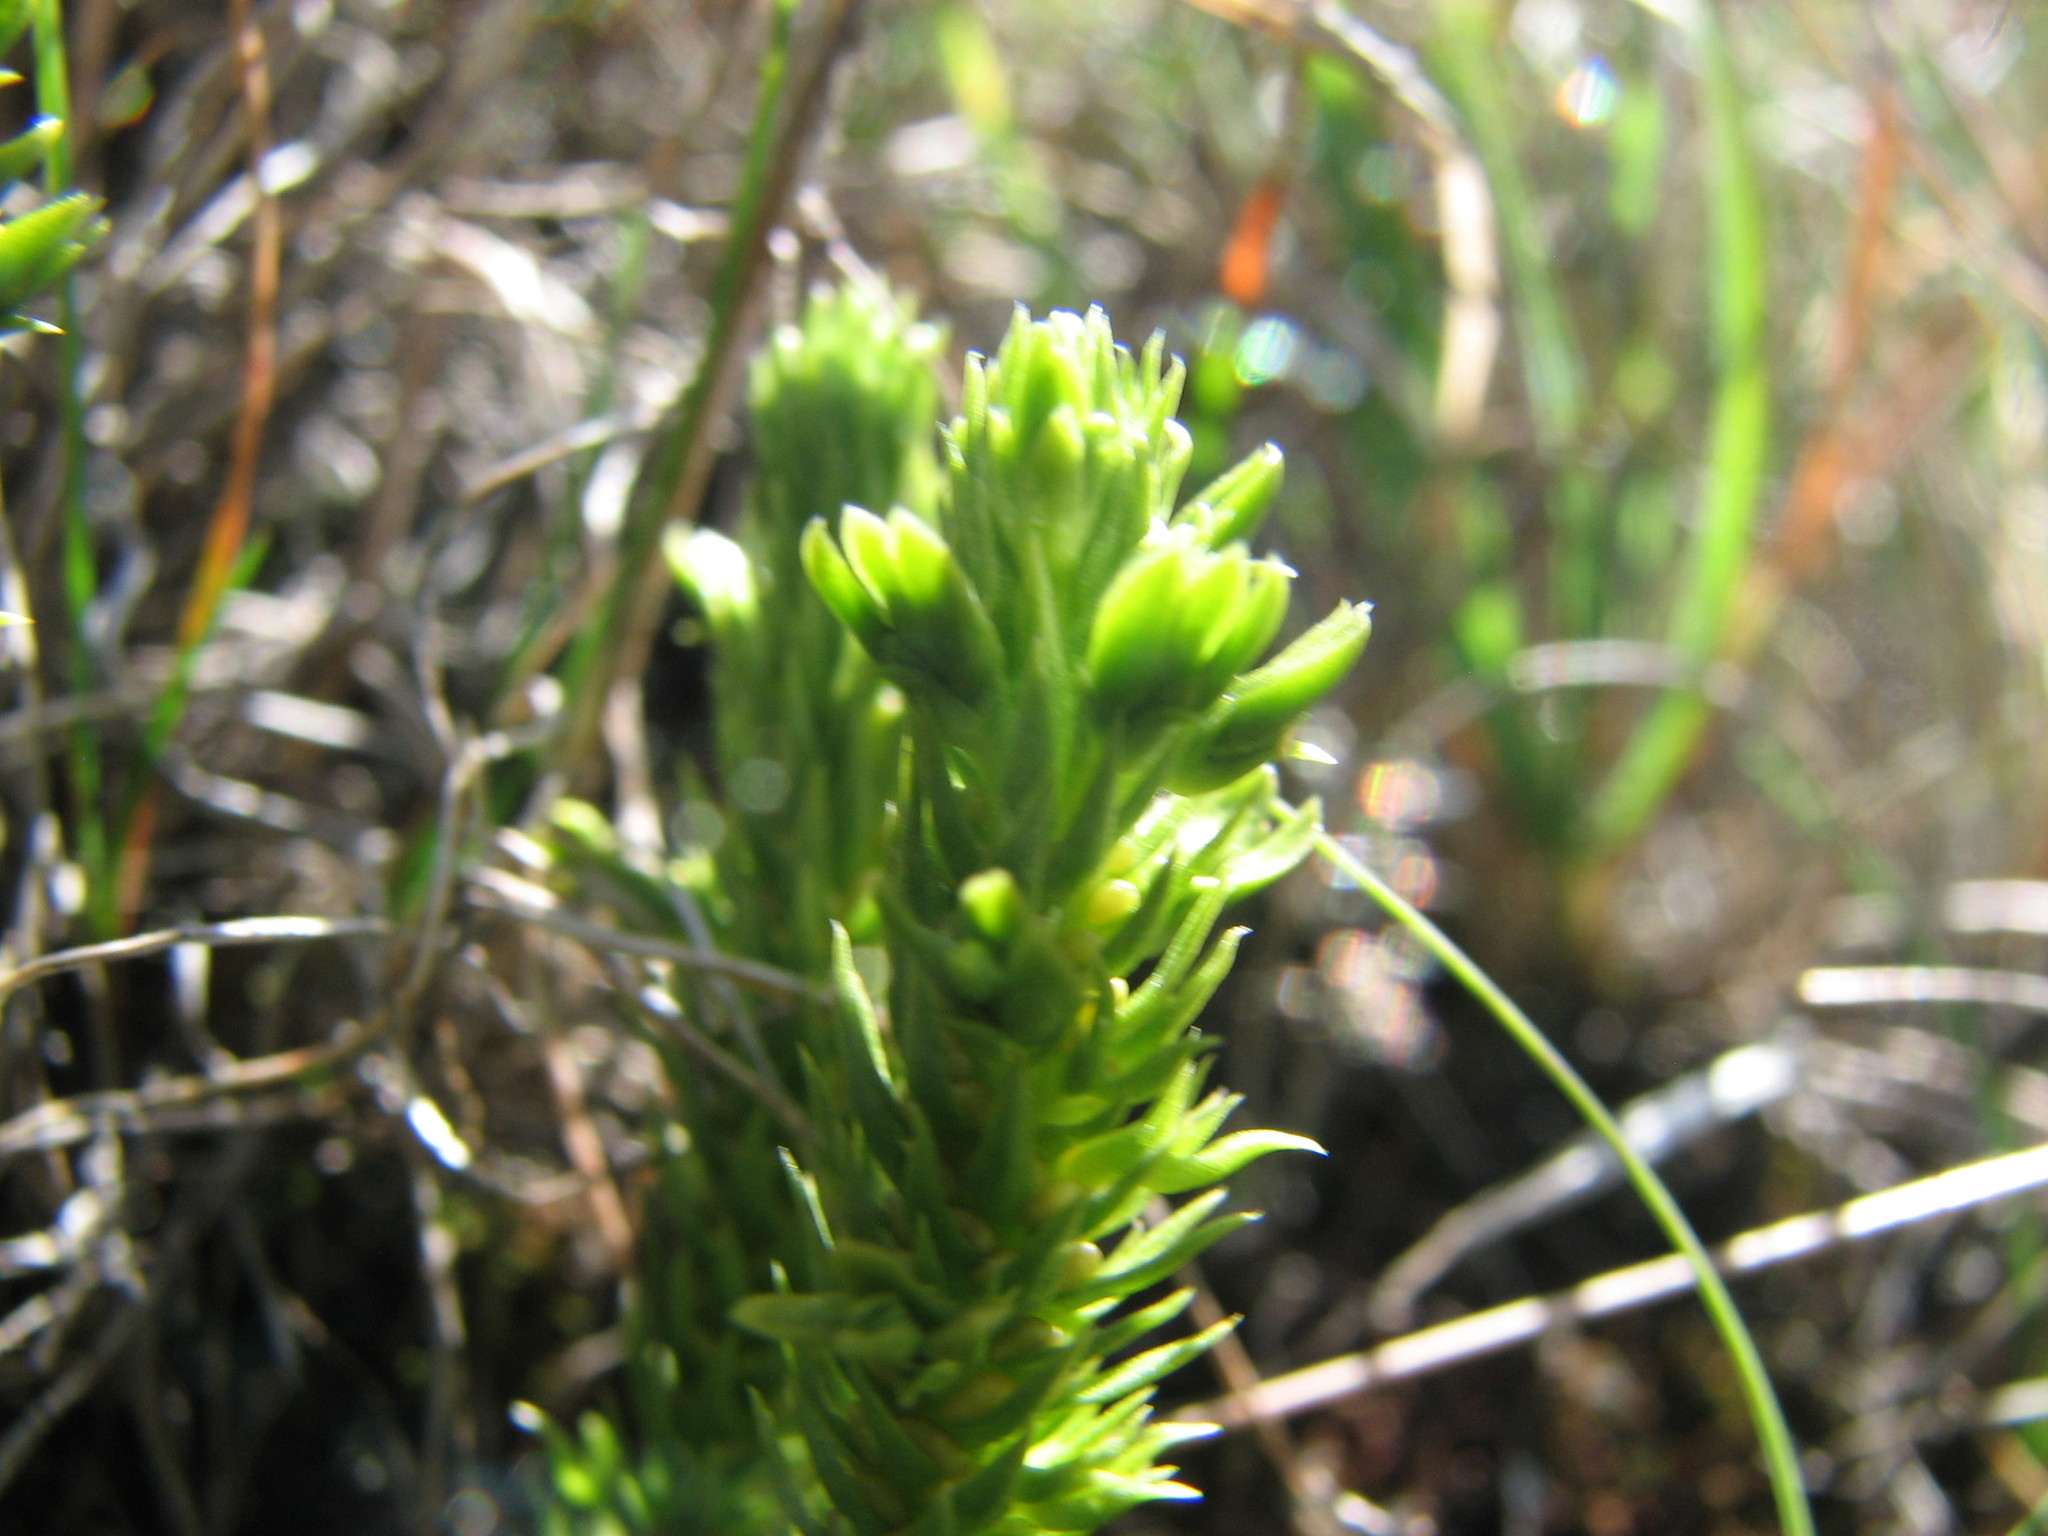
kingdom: Plantae
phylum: Tracheophyta
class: Lycopodiopsida
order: Lycopodiales
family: Lycopodiaceae
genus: Huperzia
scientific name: Huperzia selago
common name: Northern firmoss
